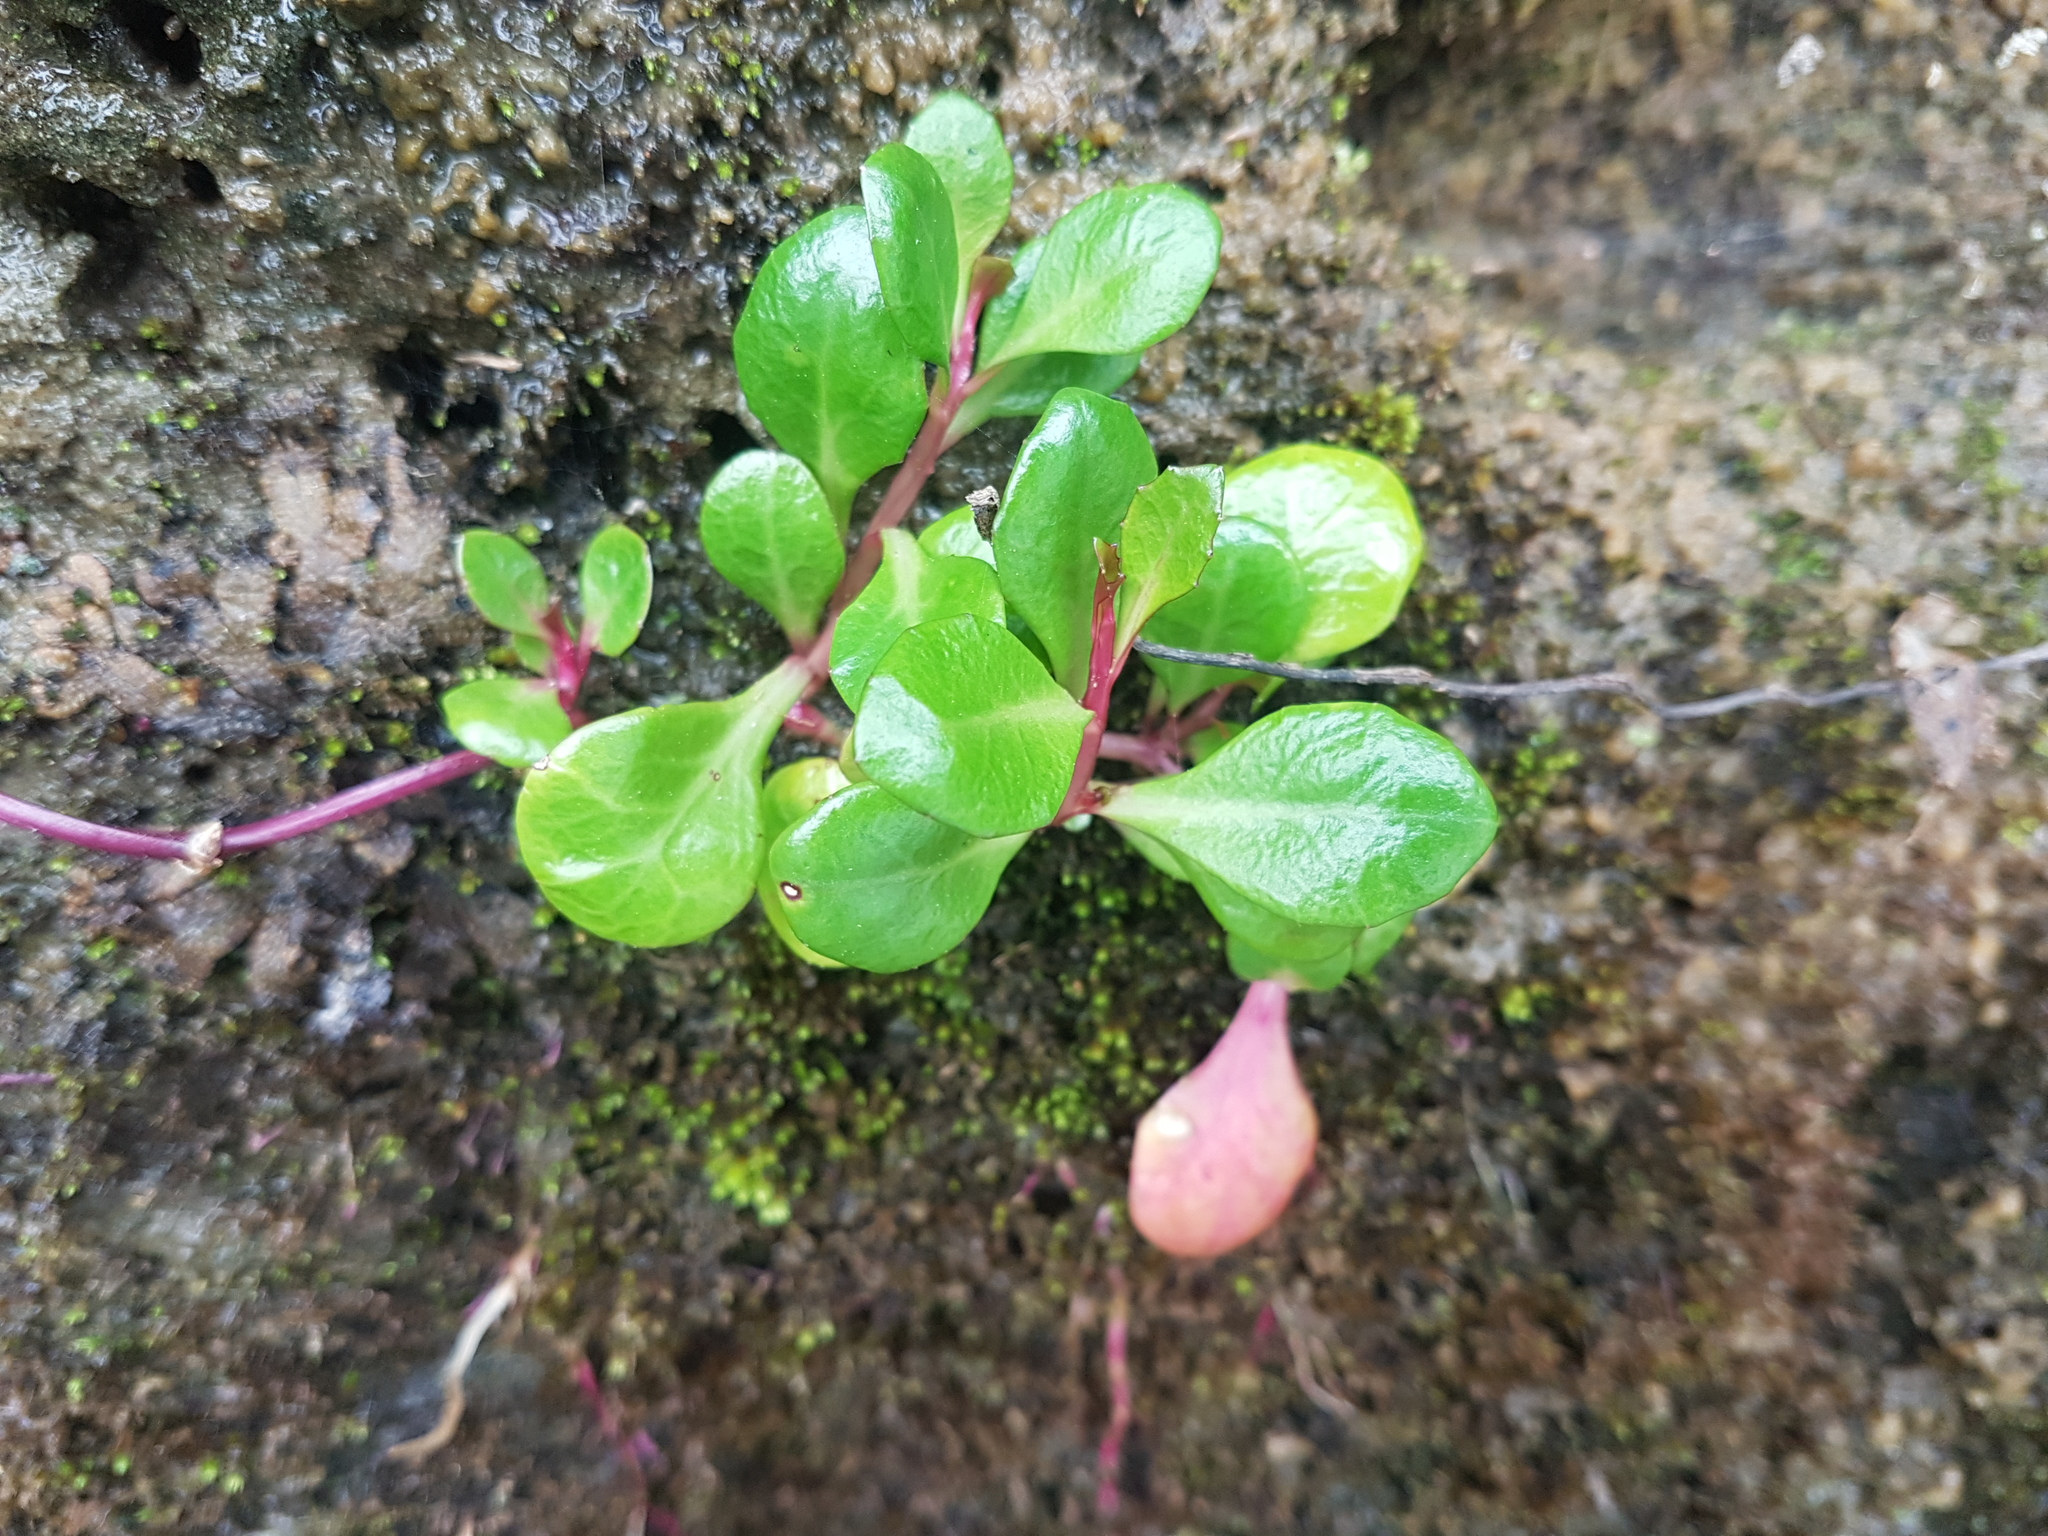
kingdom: Plantae
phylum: Tracheophyta
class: Magnoliopsida
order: Asterales
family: Campanulaceae
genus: Lobelia
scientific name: Lobelia anceps
